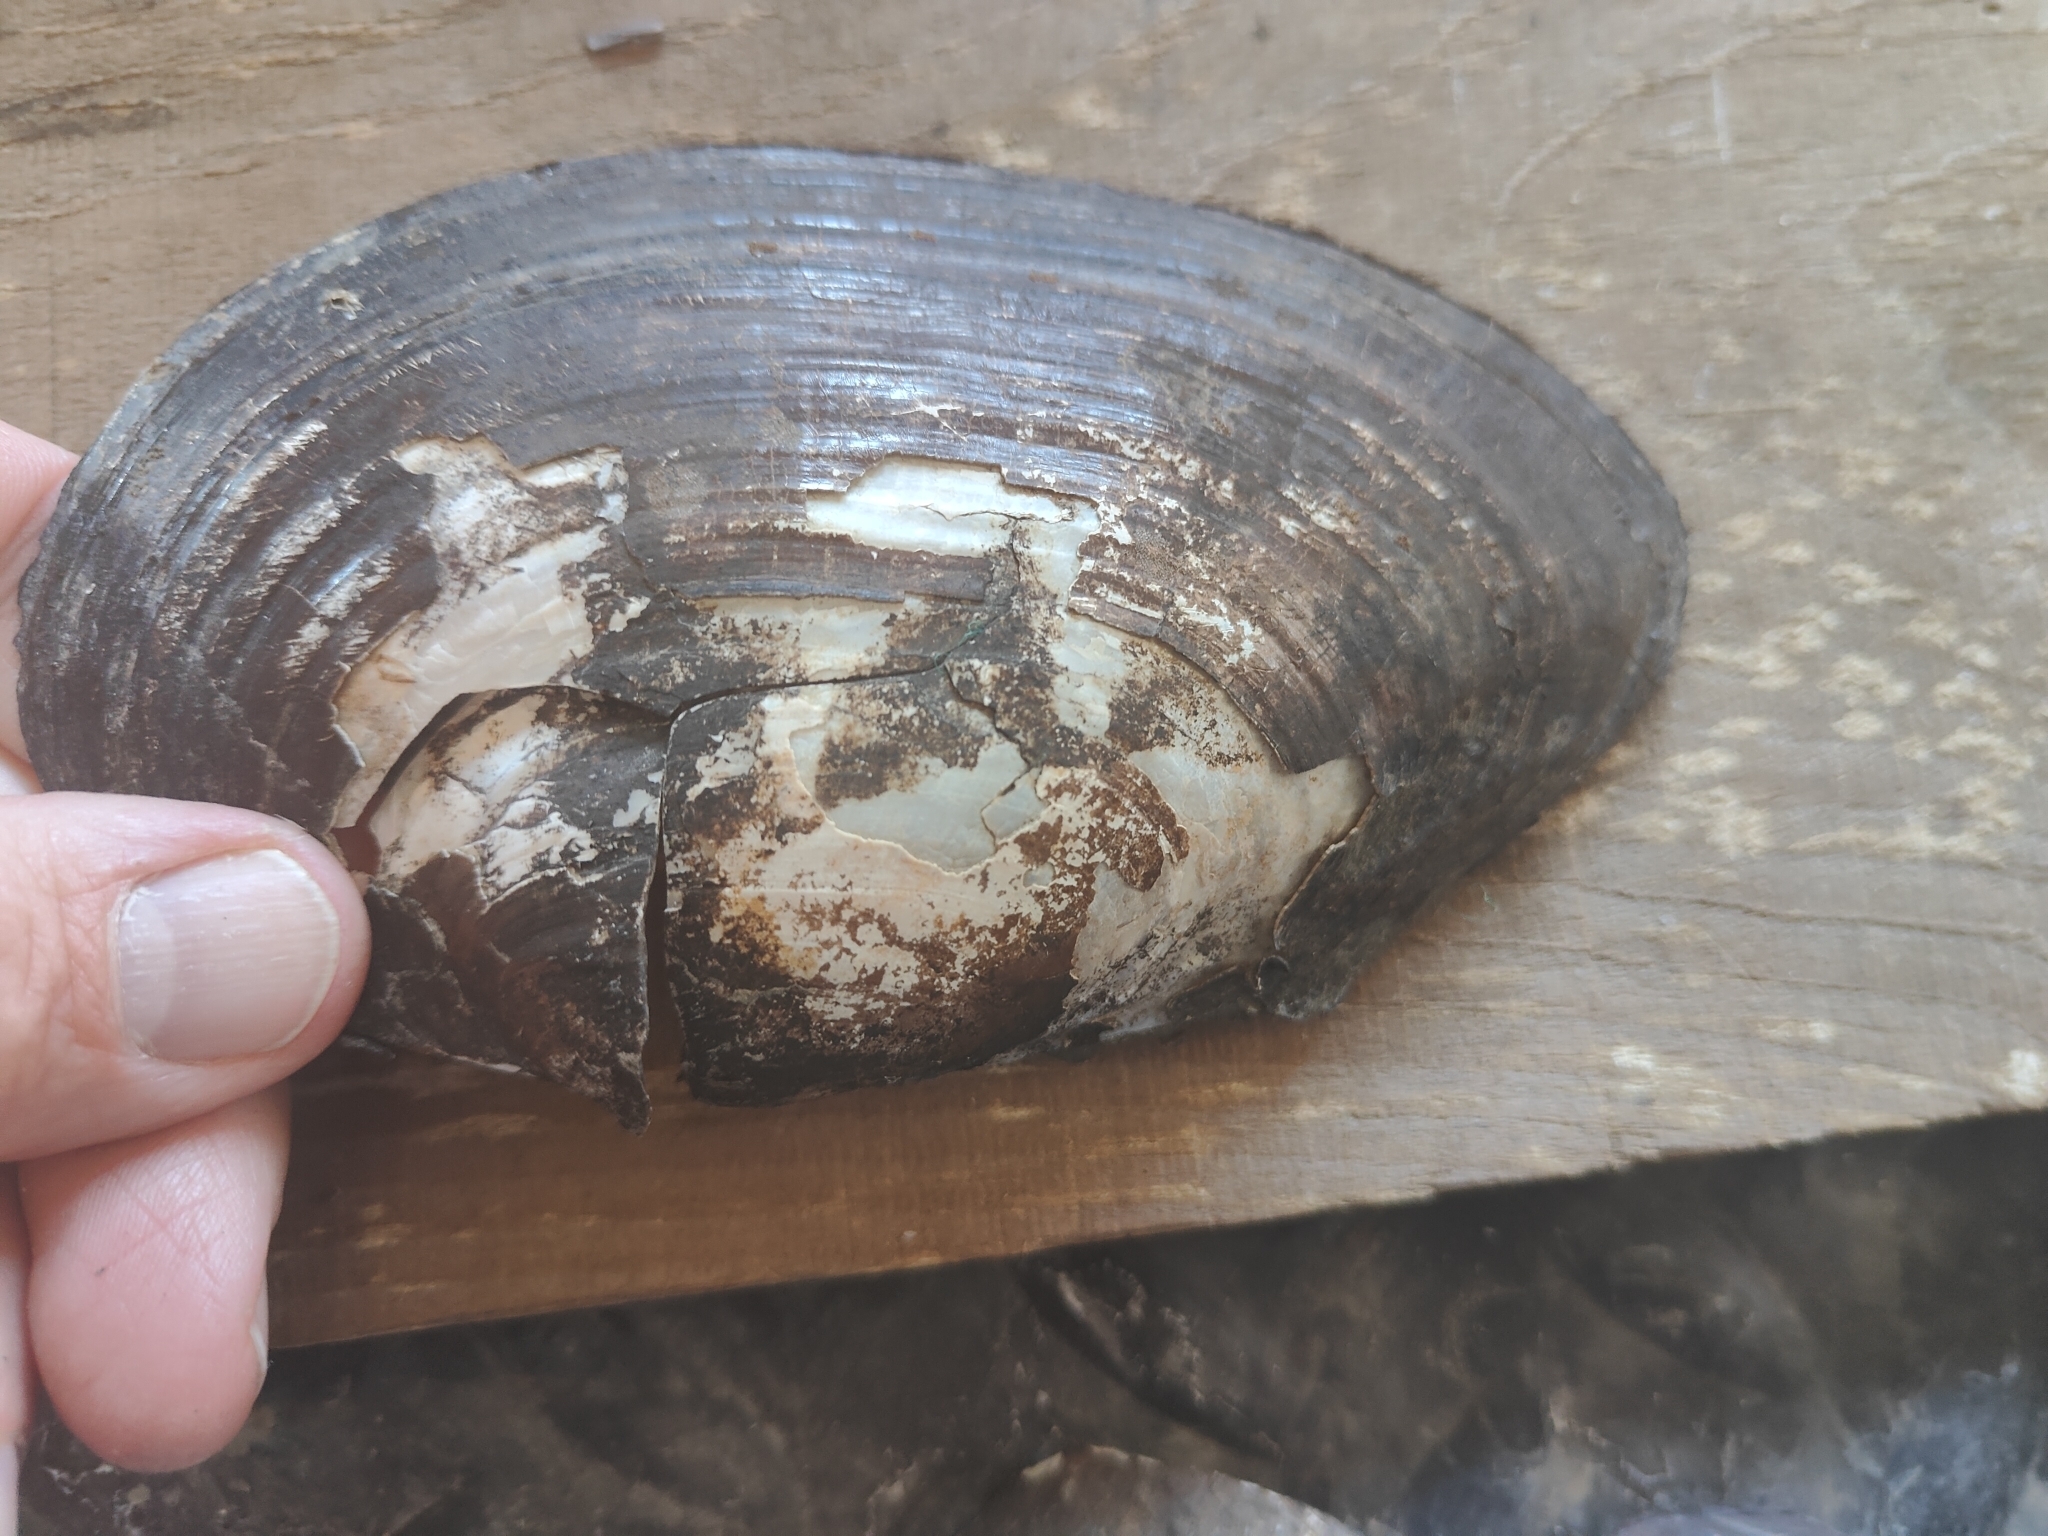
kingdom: Animalia
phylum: Mollusca
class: Bivalvia
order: Unionida
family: Unionidae
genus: Pyganodon
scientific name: Pyganodon grandis
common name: Giant floater
